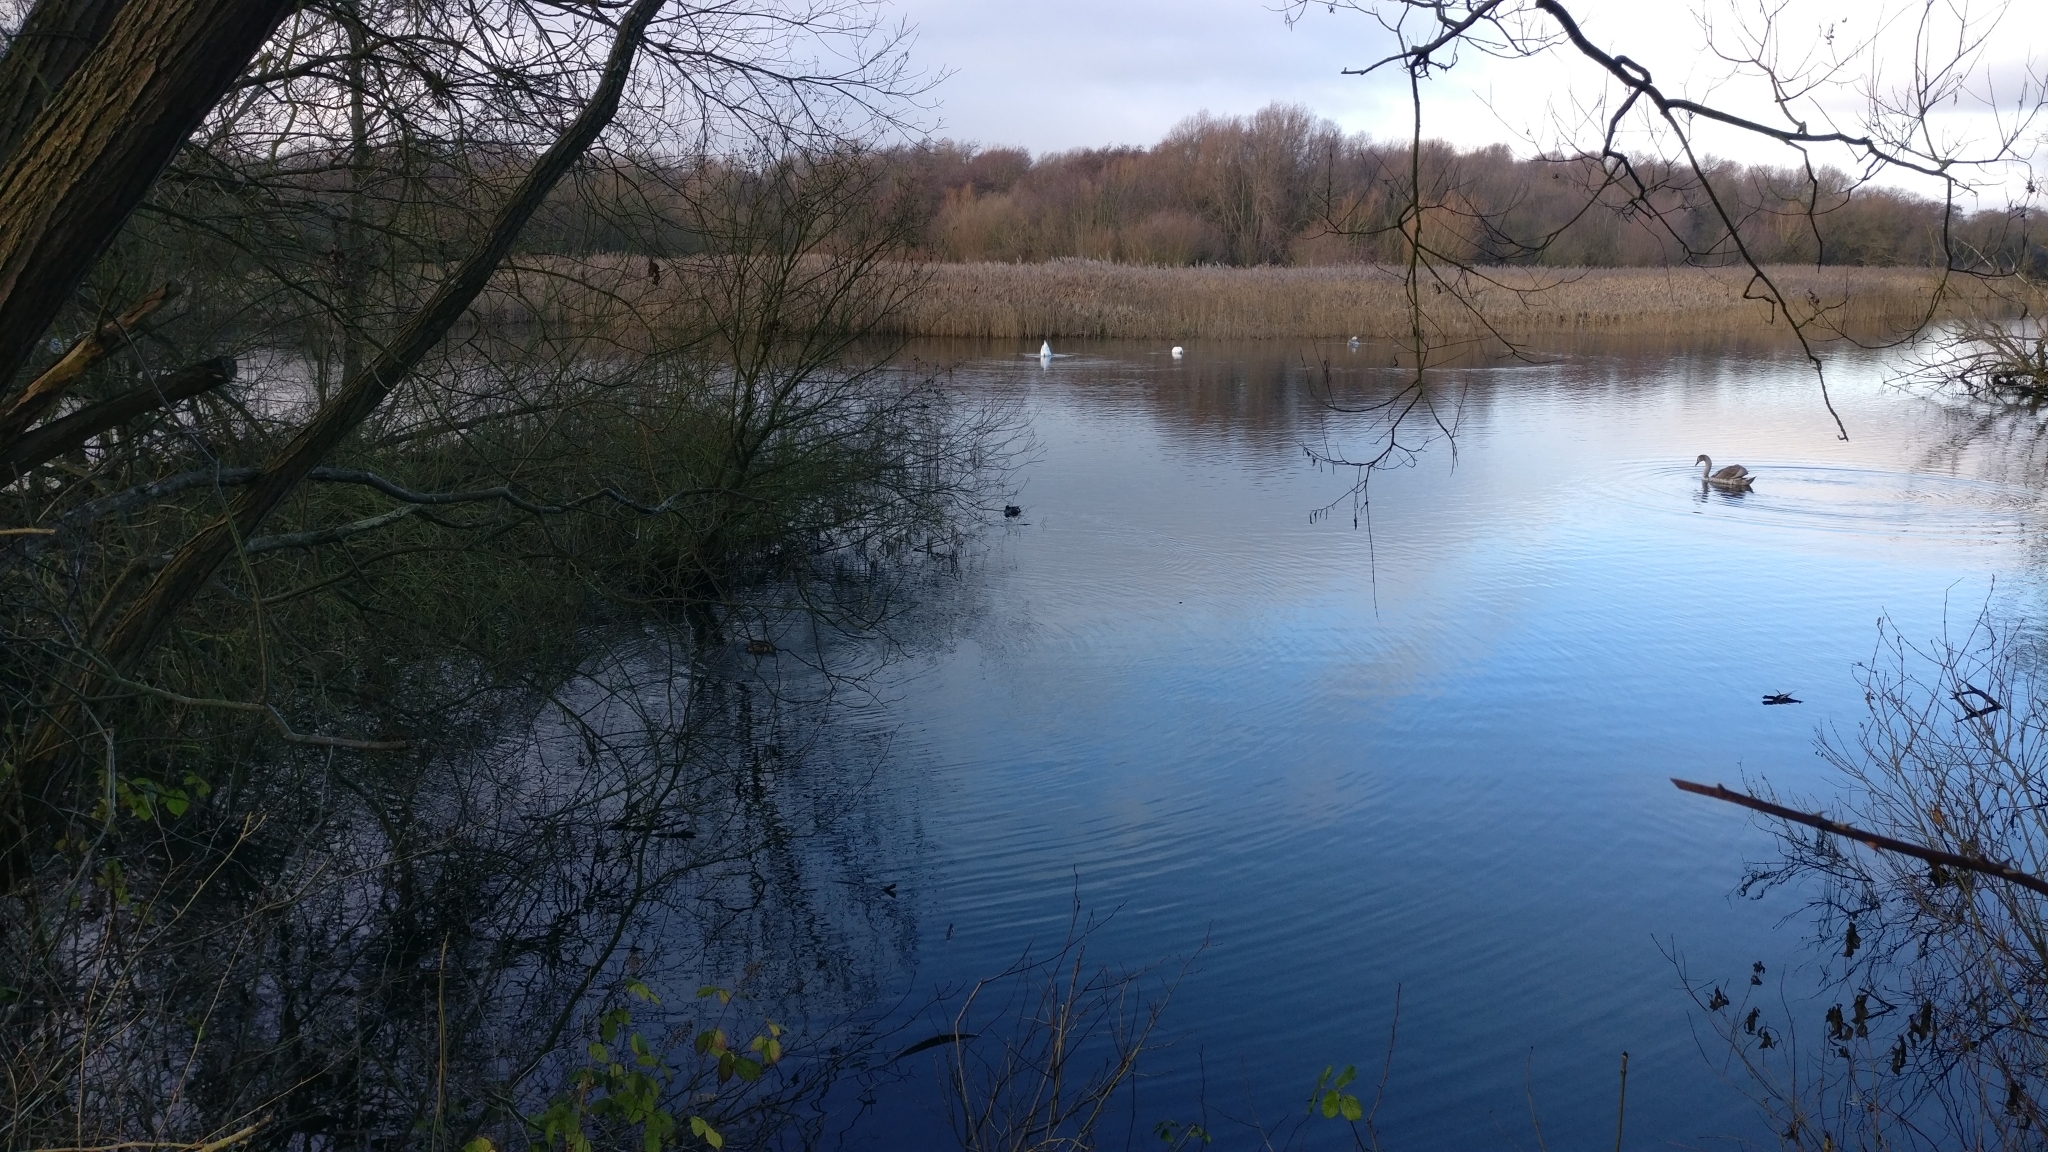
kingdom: Animalia
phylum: Chordata
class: Aves
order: Anseriformes
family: Anatidae
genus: Cygnus
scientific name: Cygnus olor
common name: Mute swan
